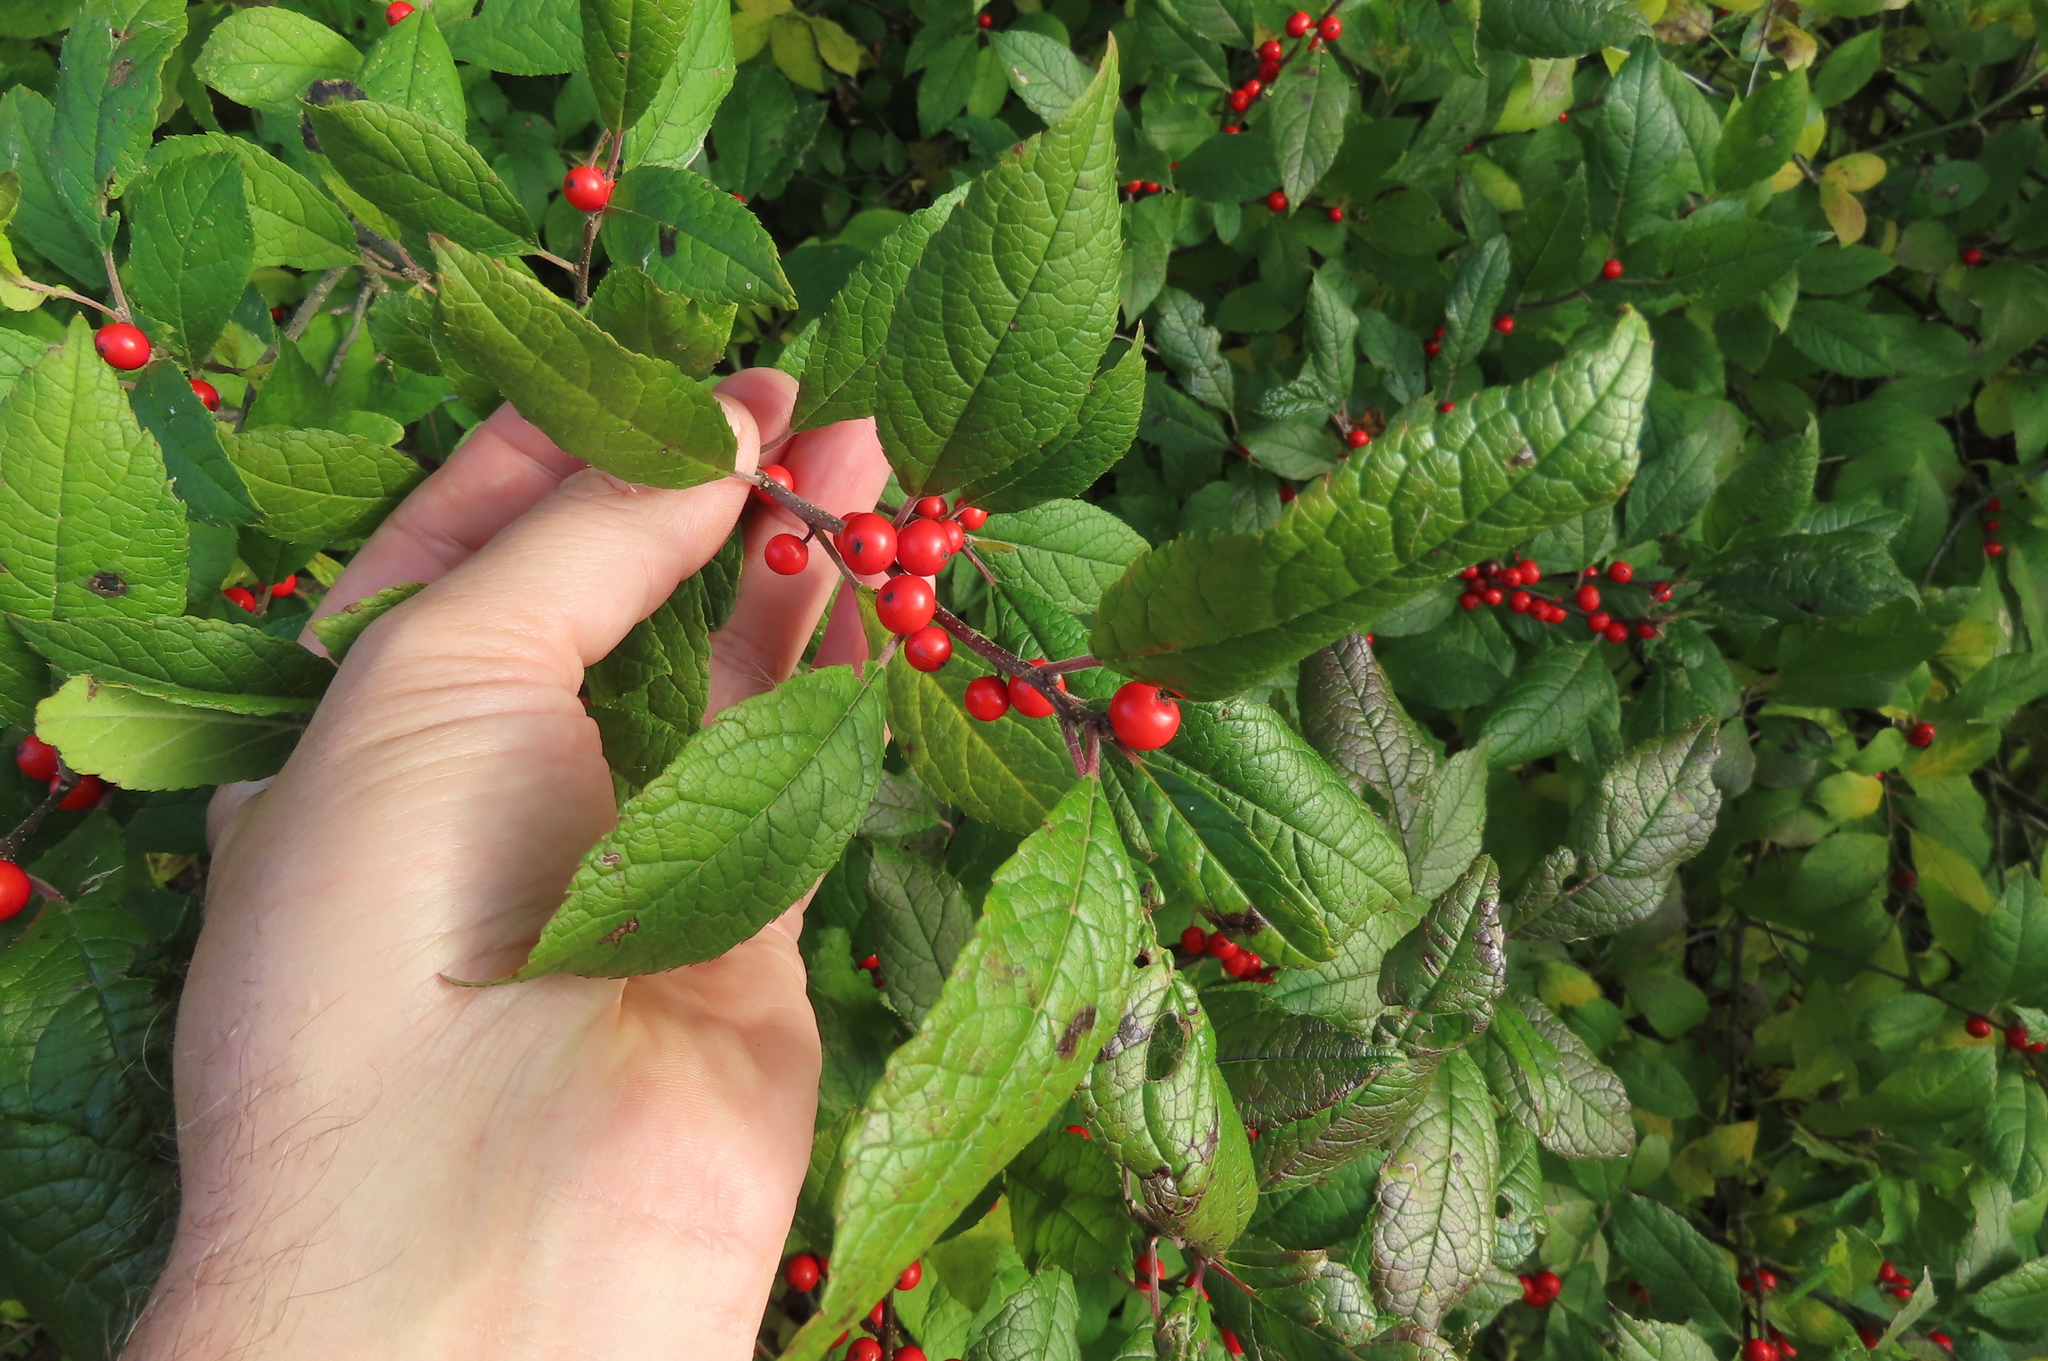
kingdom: Plantae
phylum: Tracheophyta
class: Magnoliopsida
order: Aquifoliales
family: Aquifoliaceae
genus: Ilex
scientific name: Ilex verticillata
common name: Virginia winterberry
